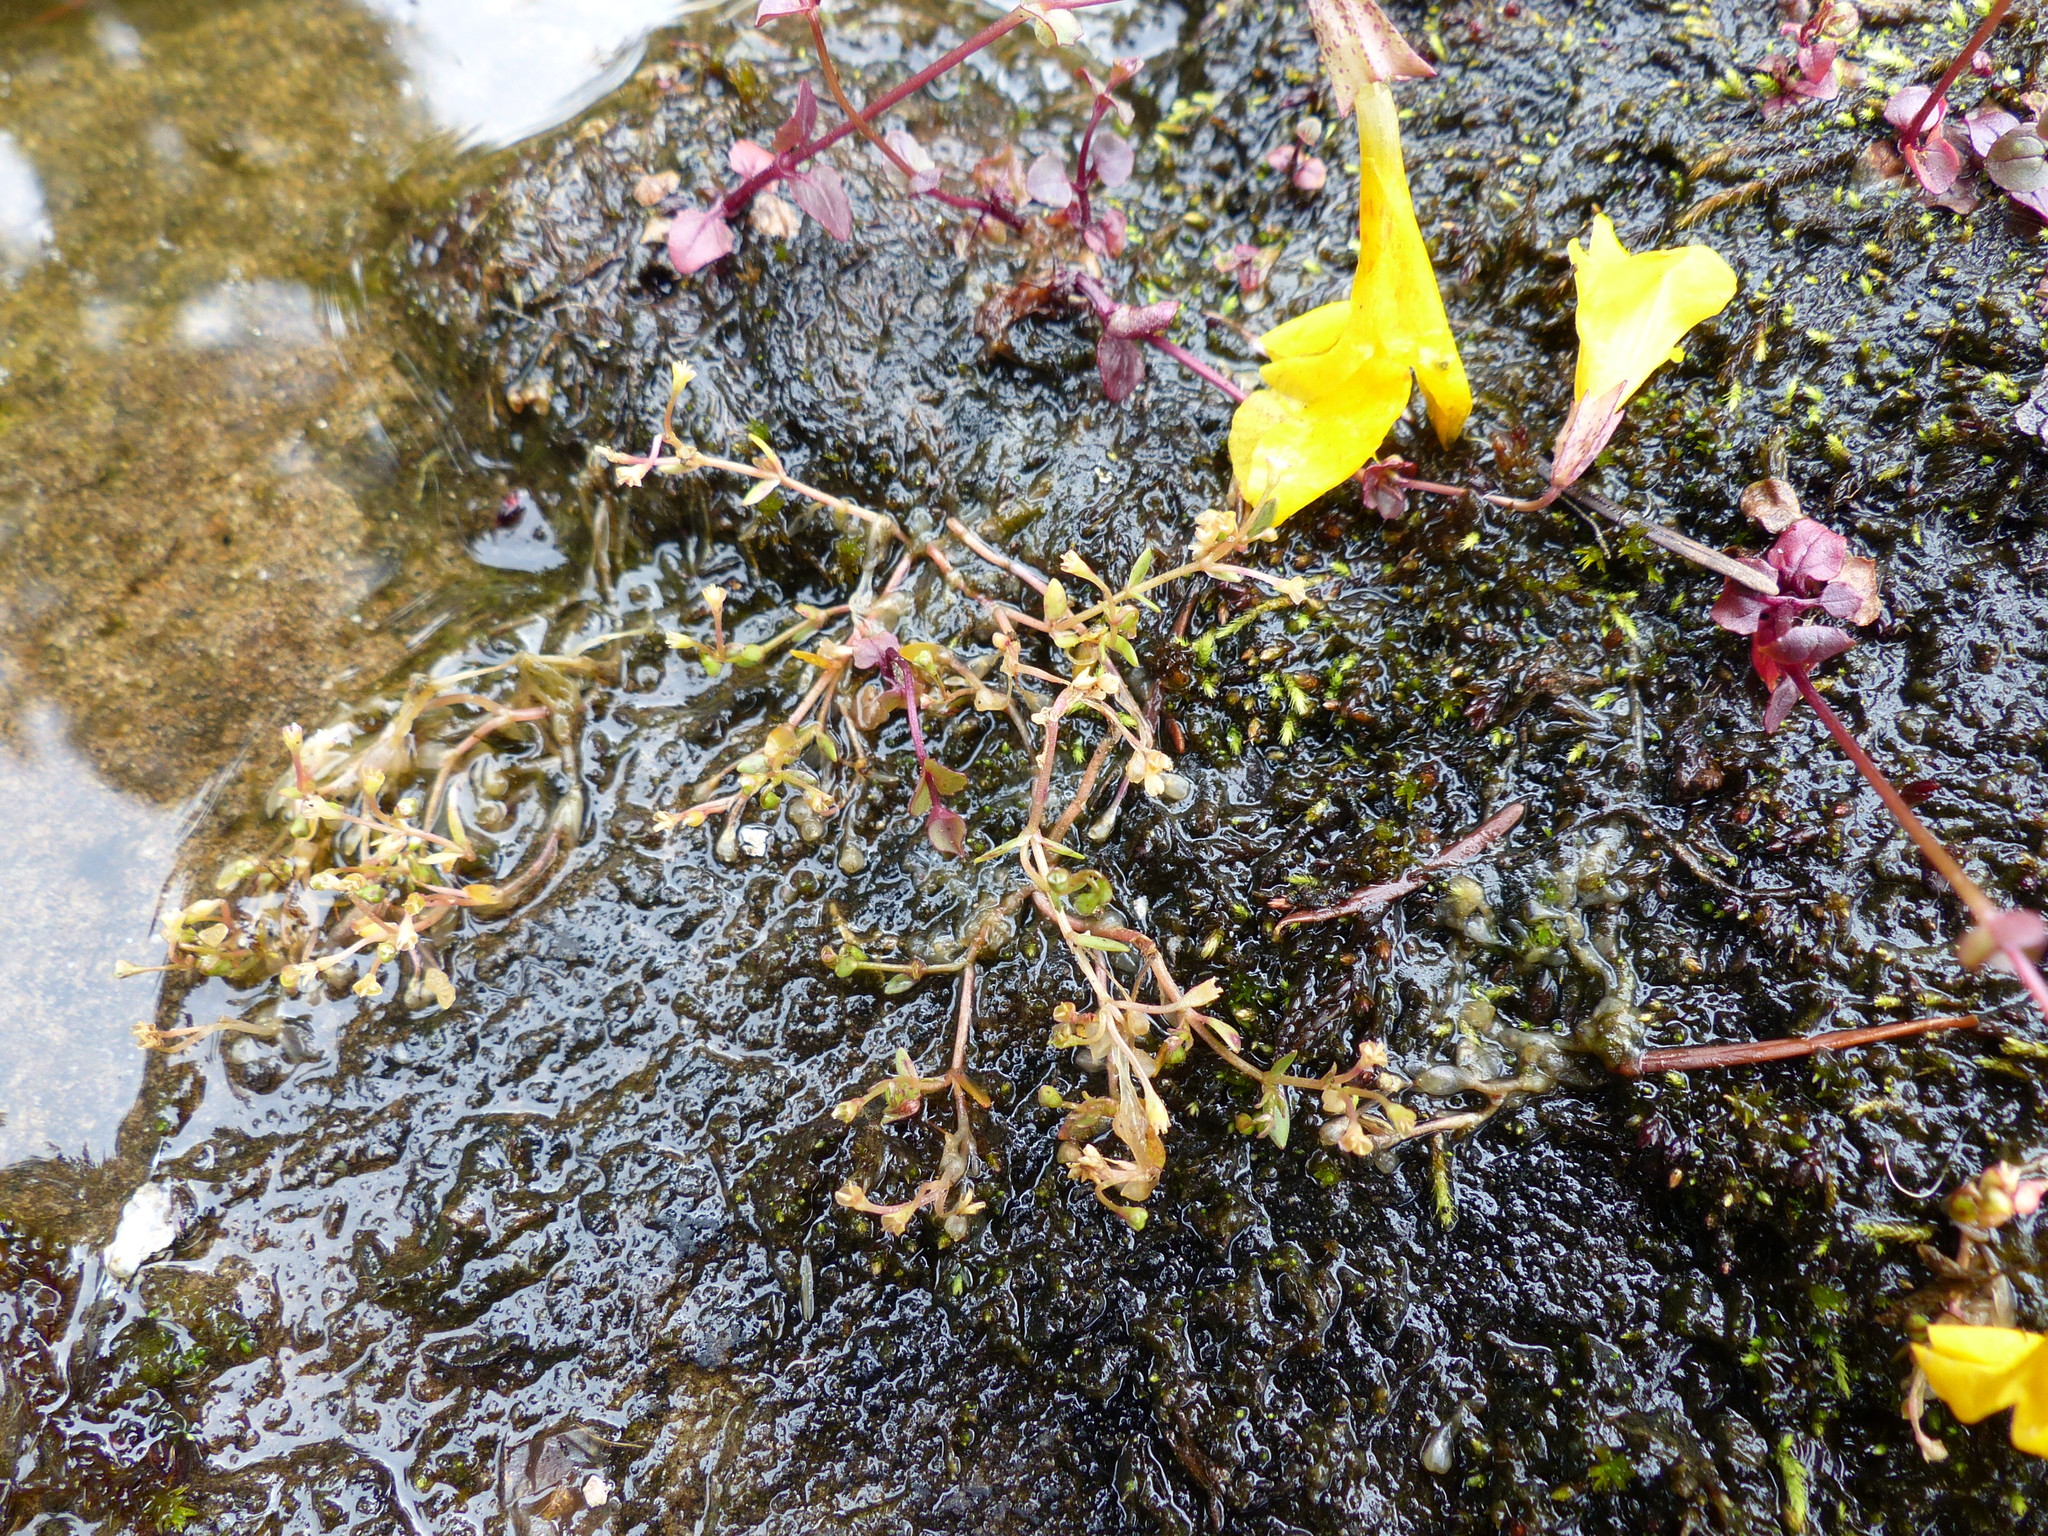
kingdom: Plantae
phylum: Tracheophyta
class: Magnoliopsida
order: Caryophyllales
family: Montiaceae
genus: Montia
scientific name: Montia fontana
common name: Blinks
